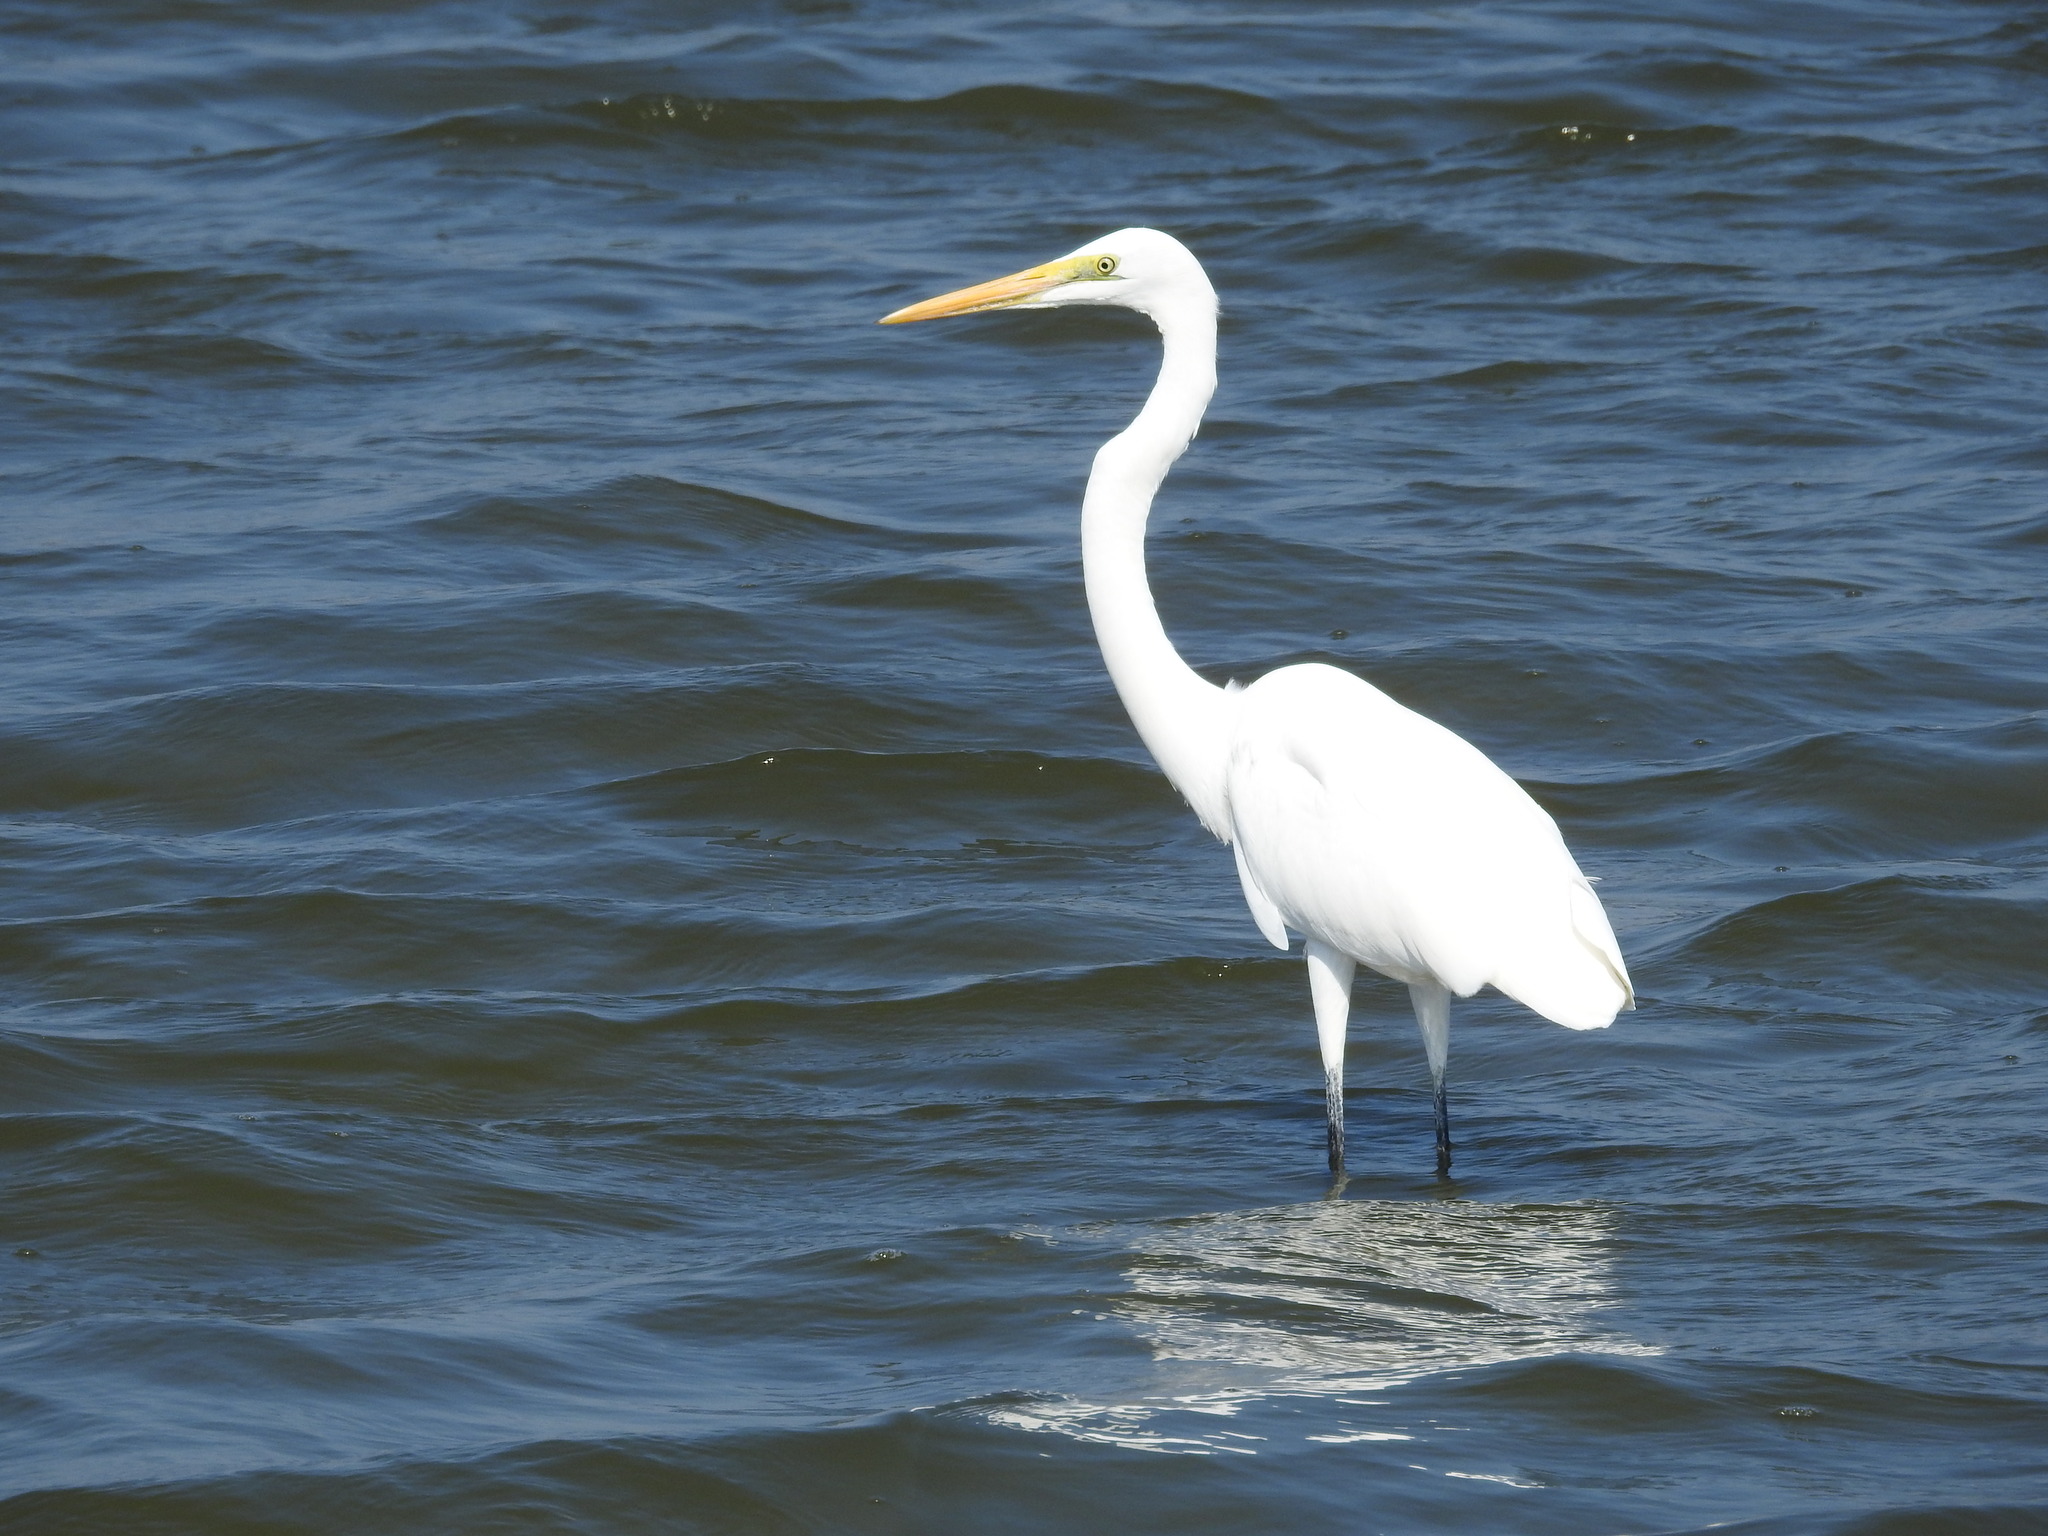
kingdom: Animalia
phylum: Chordata
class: Aves
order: Pelecaniformes
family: Ardeidae
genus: Ardea
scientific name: Ardea alba
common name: Great egret
